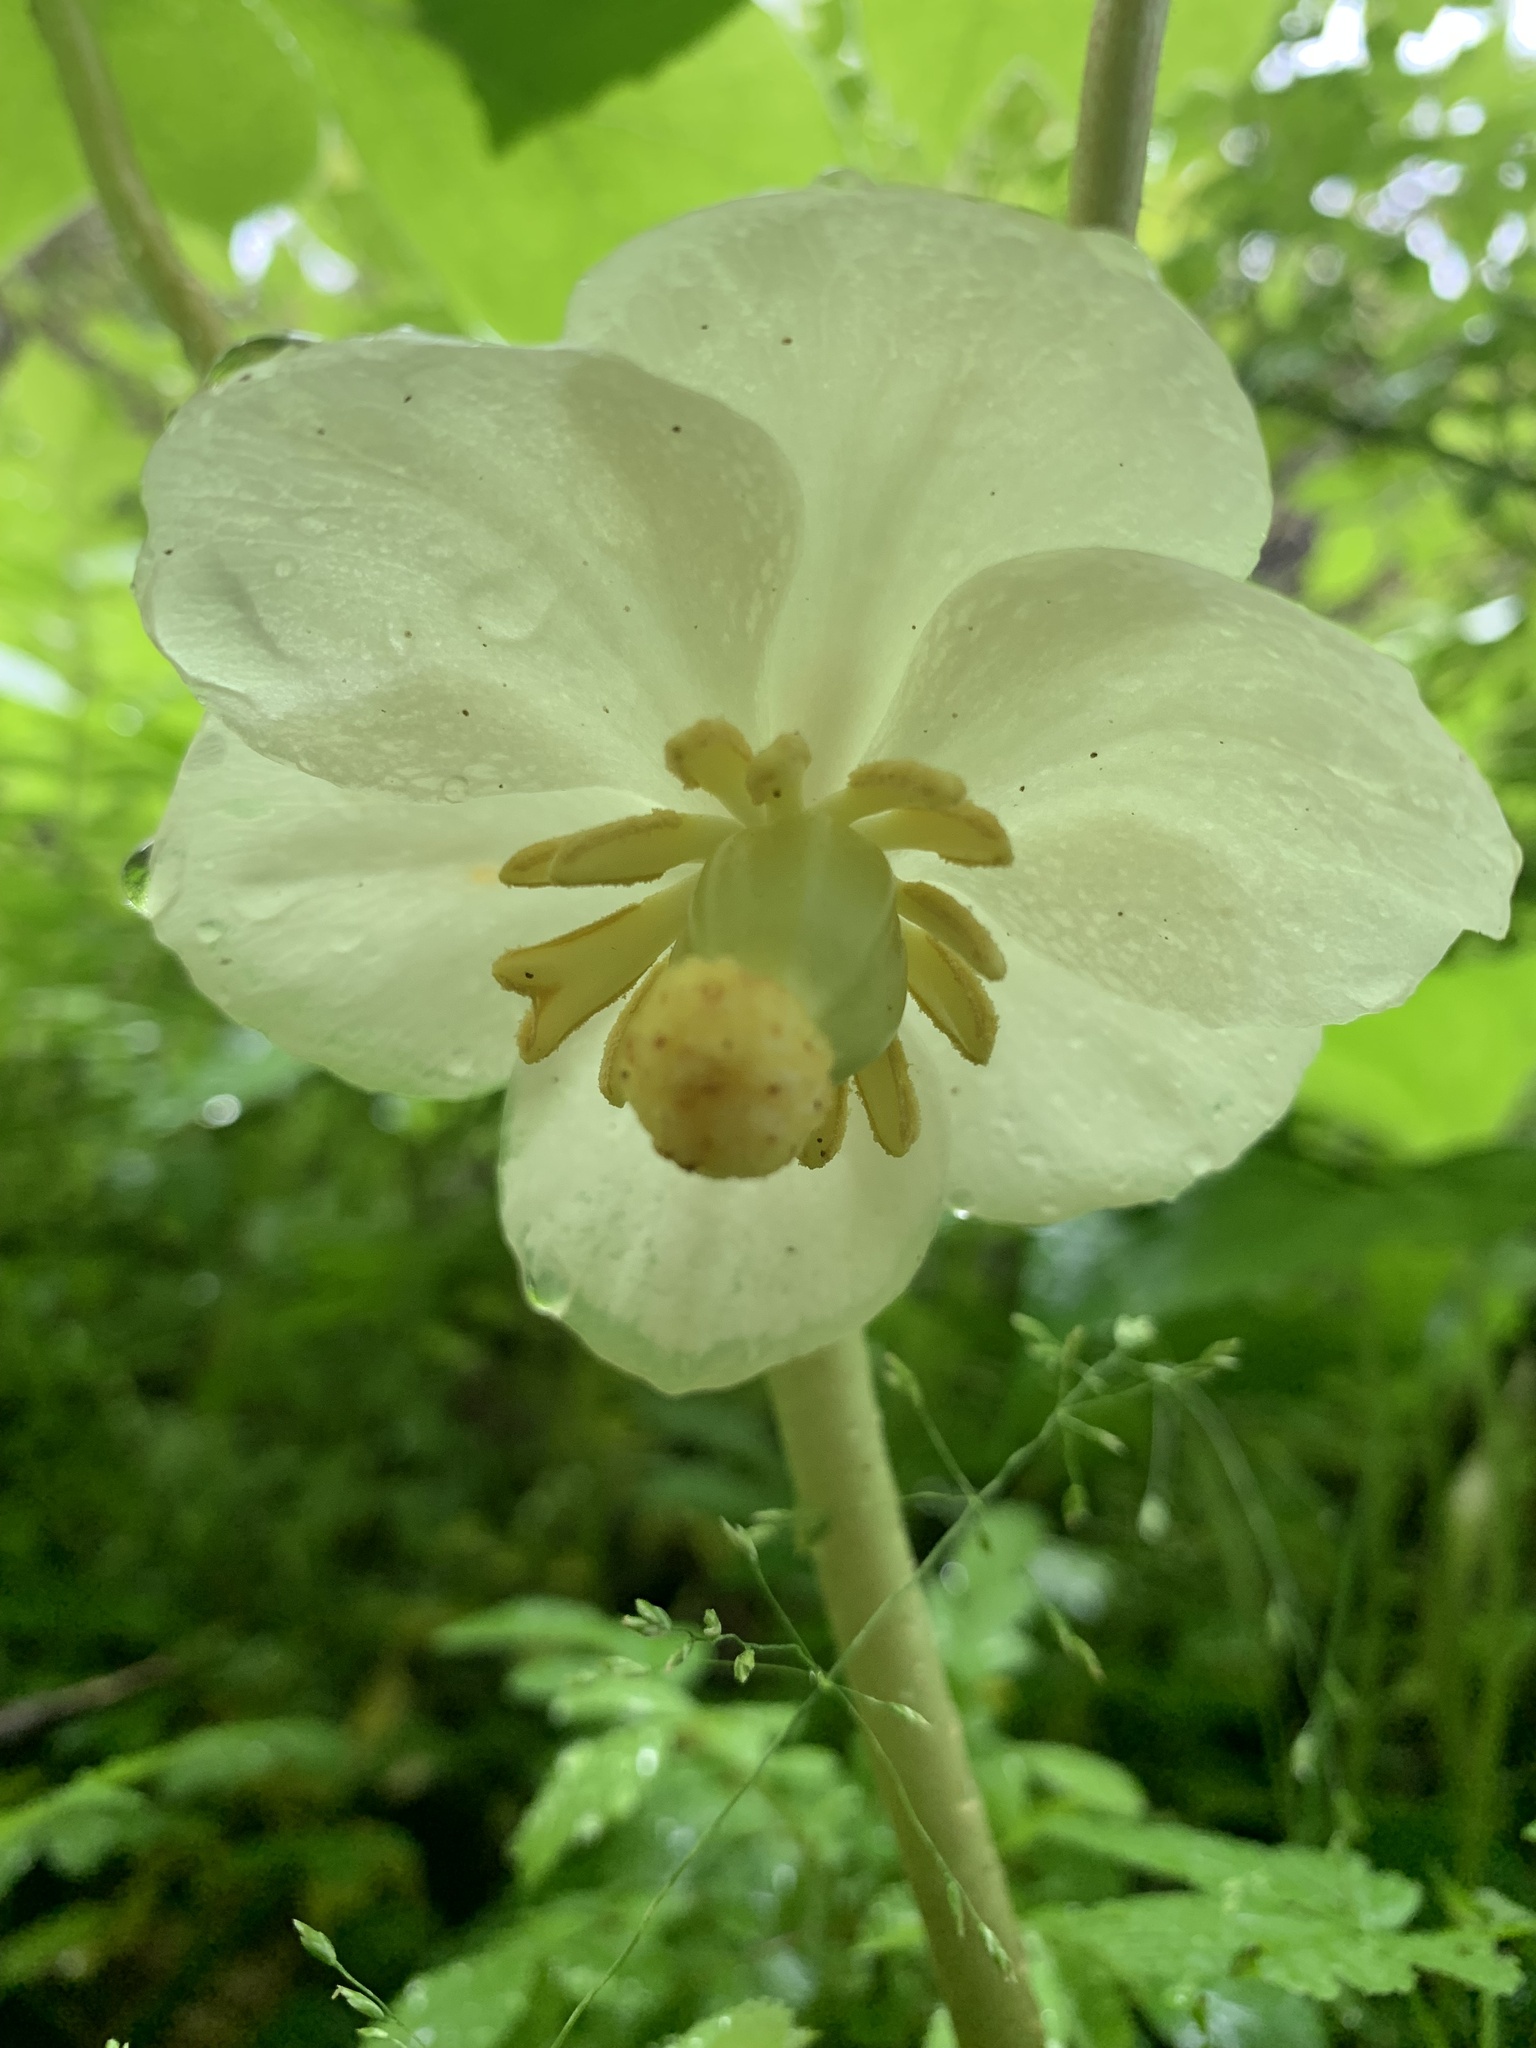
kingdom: Plantae
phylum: Tracheophyta
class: Magnoliopsida
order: Ranunculales
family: Berberidaceae
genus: Podophyllum
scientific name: Podophyllum peltatum
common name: Wild mandrake
